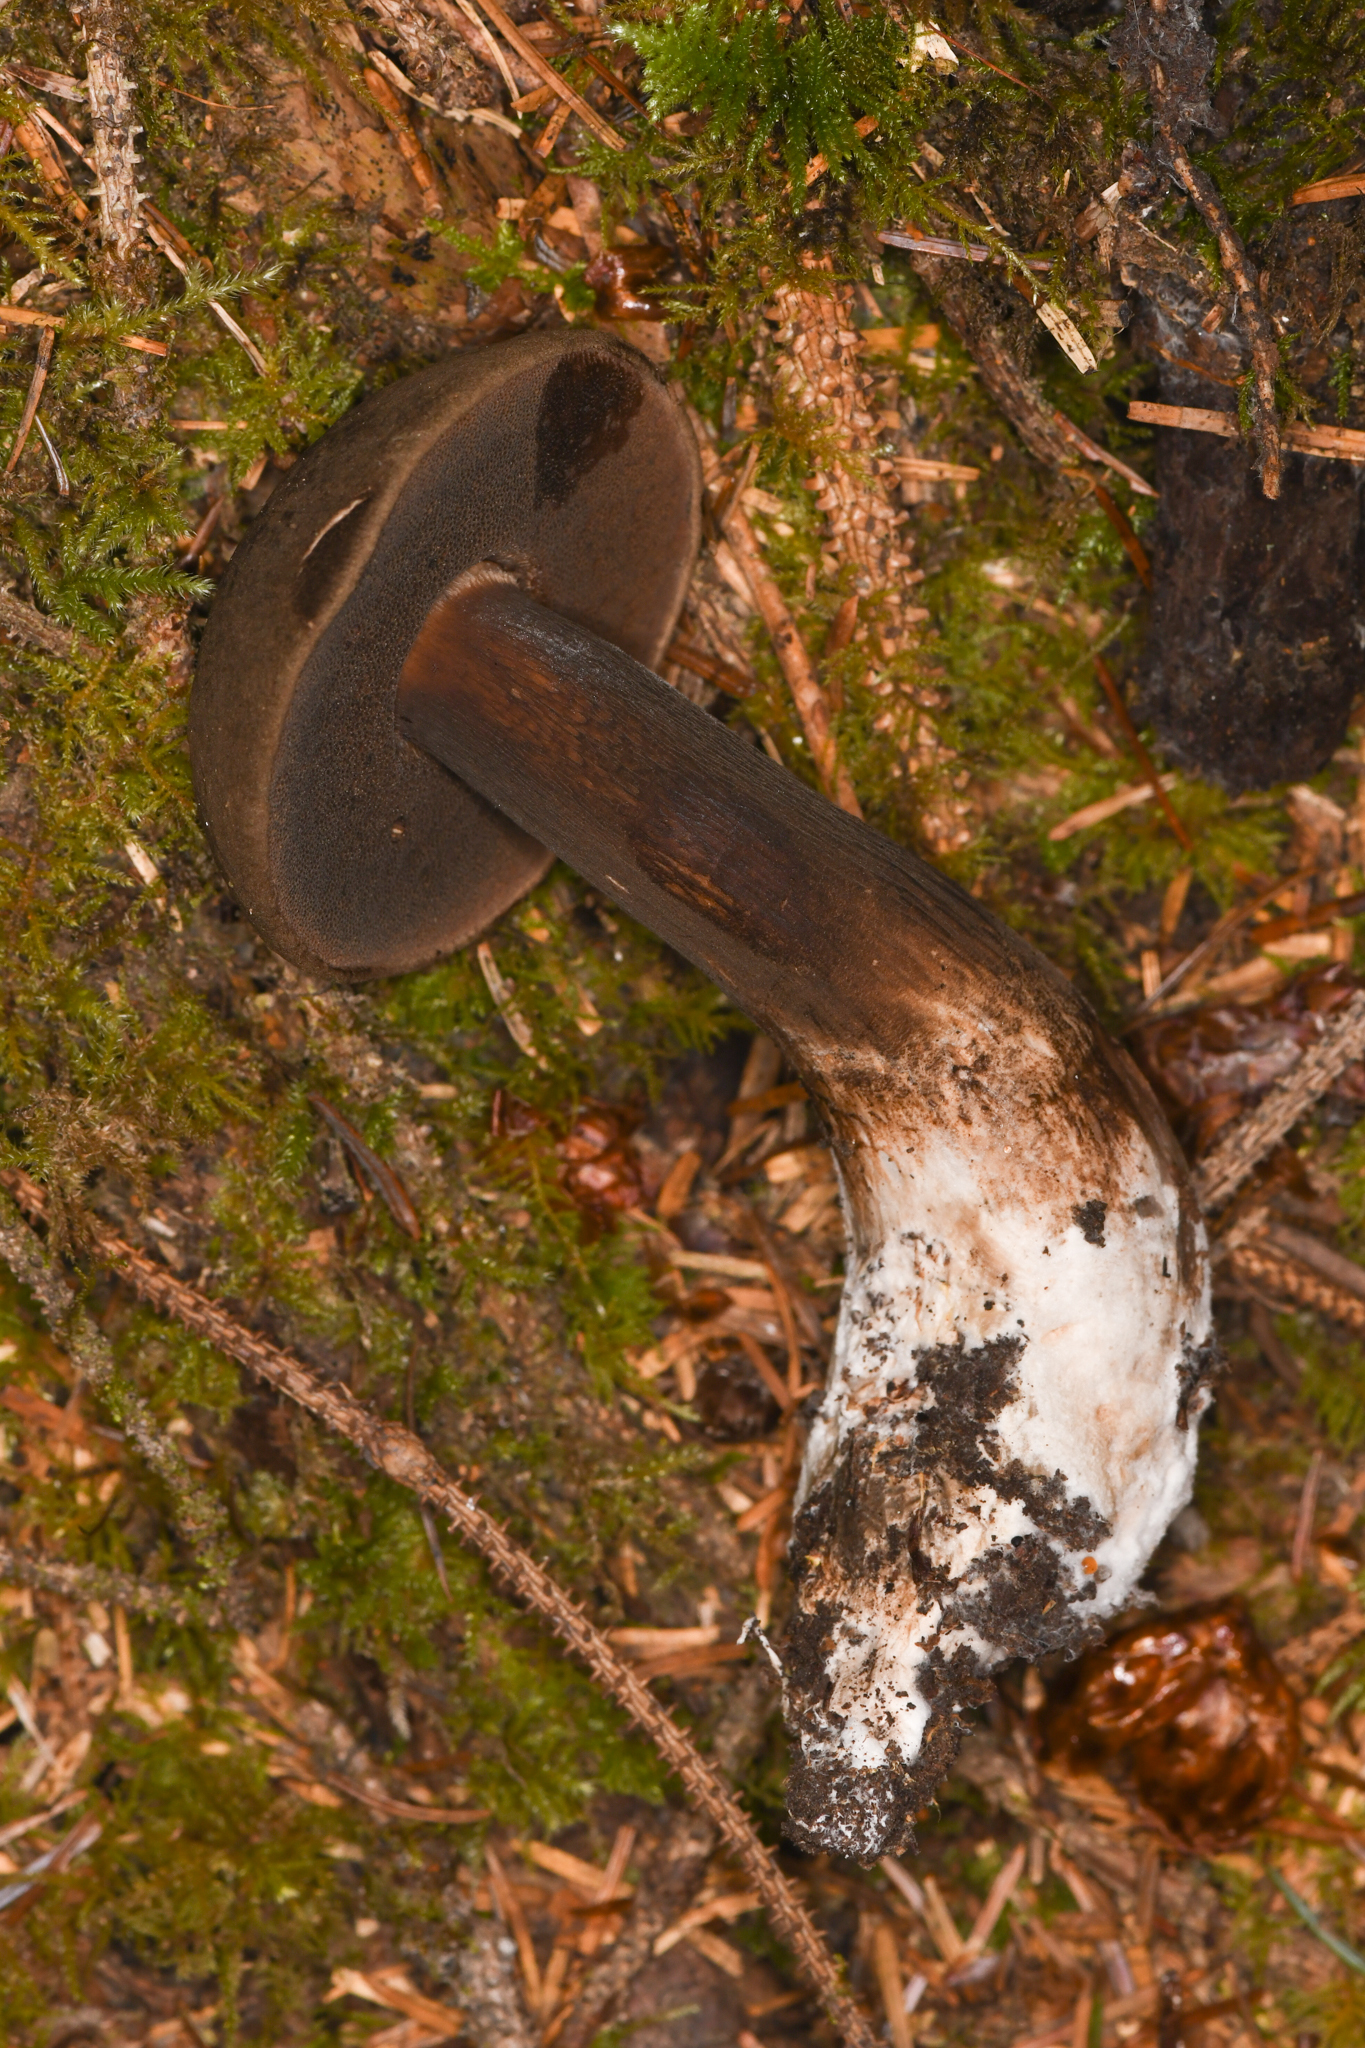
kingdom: Fungi
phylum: Basidiomycota
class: Agaricomycetes
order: Boletales
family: Boletaceae
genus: Porphyrellus
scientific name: Porphyrellus porphyrosporus
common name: Dusky bolete
